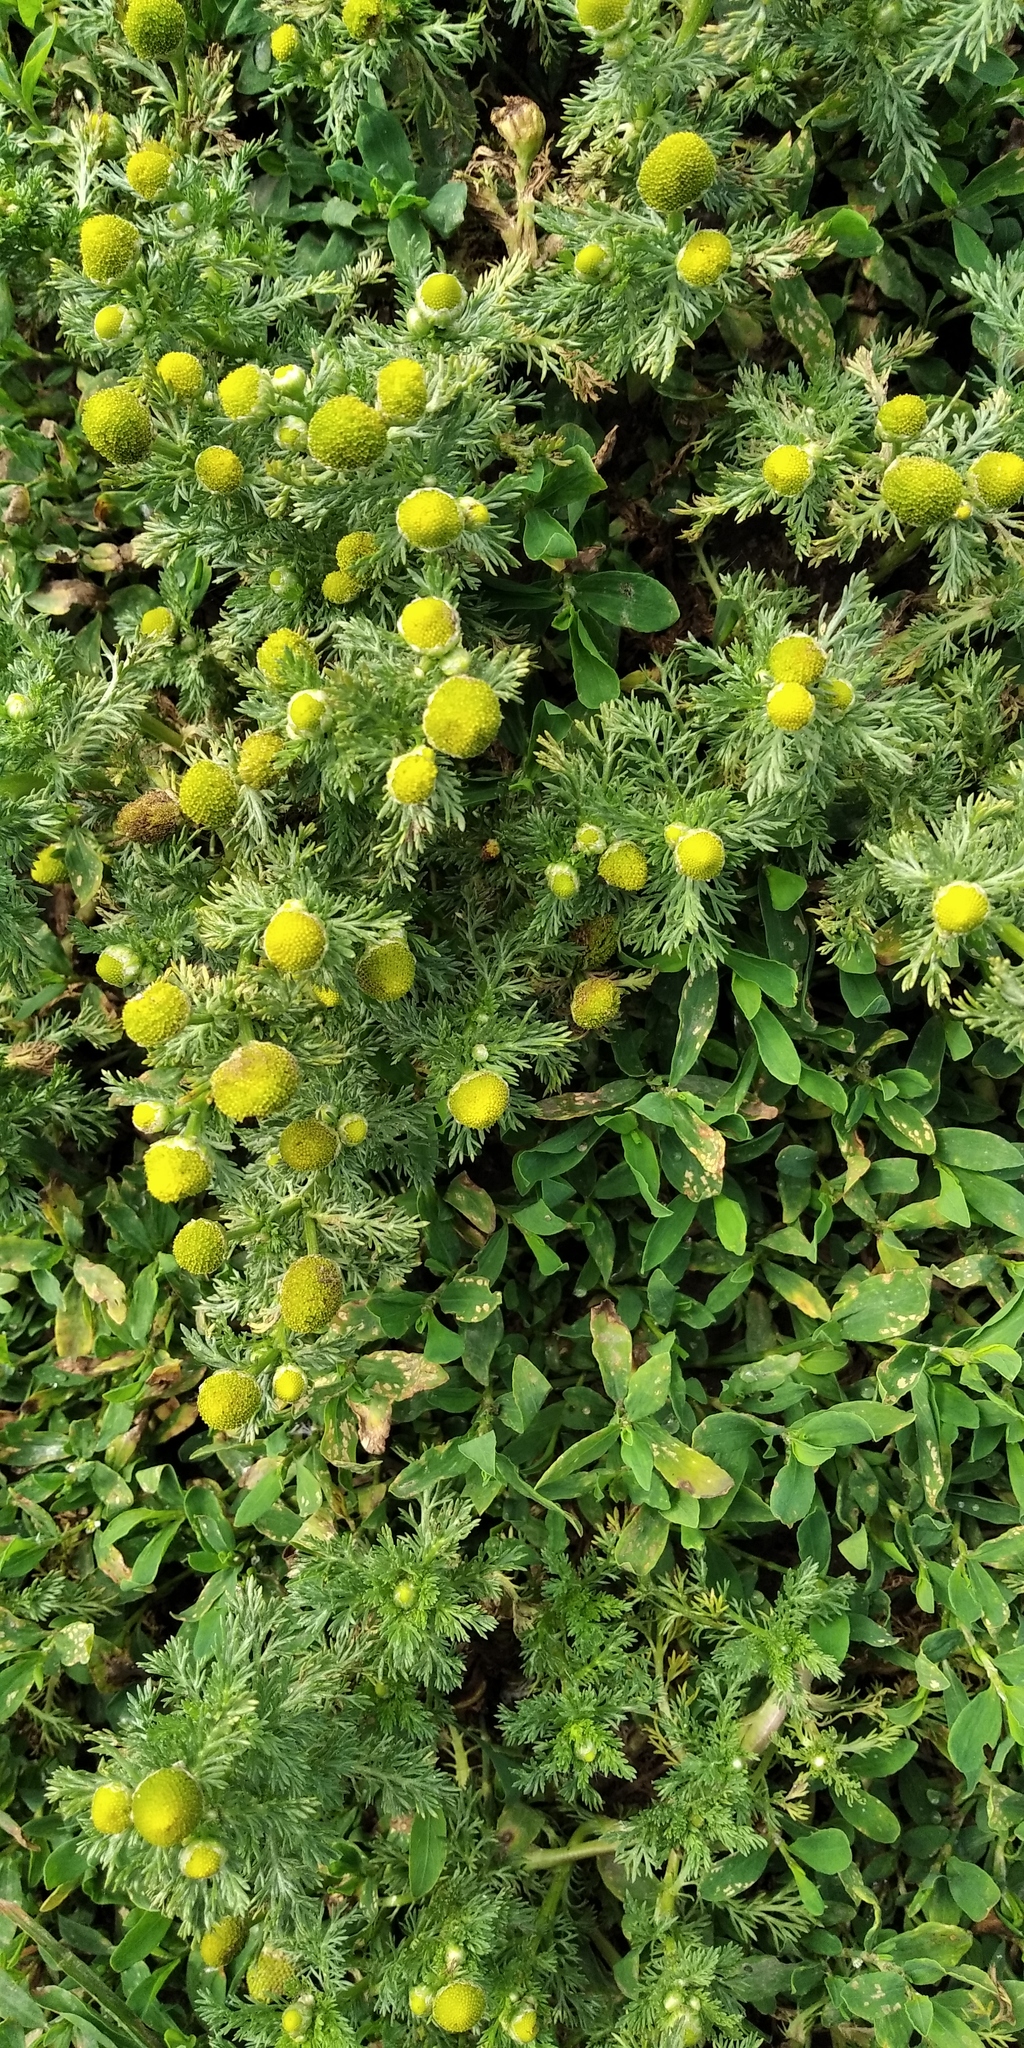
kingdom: Plantae
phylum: Tracheophyta
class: Magnoliopsida
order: Asterales
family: Asteraceae
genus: Matricaria
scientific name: Matricaria discoidea
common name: Disc mayweed
